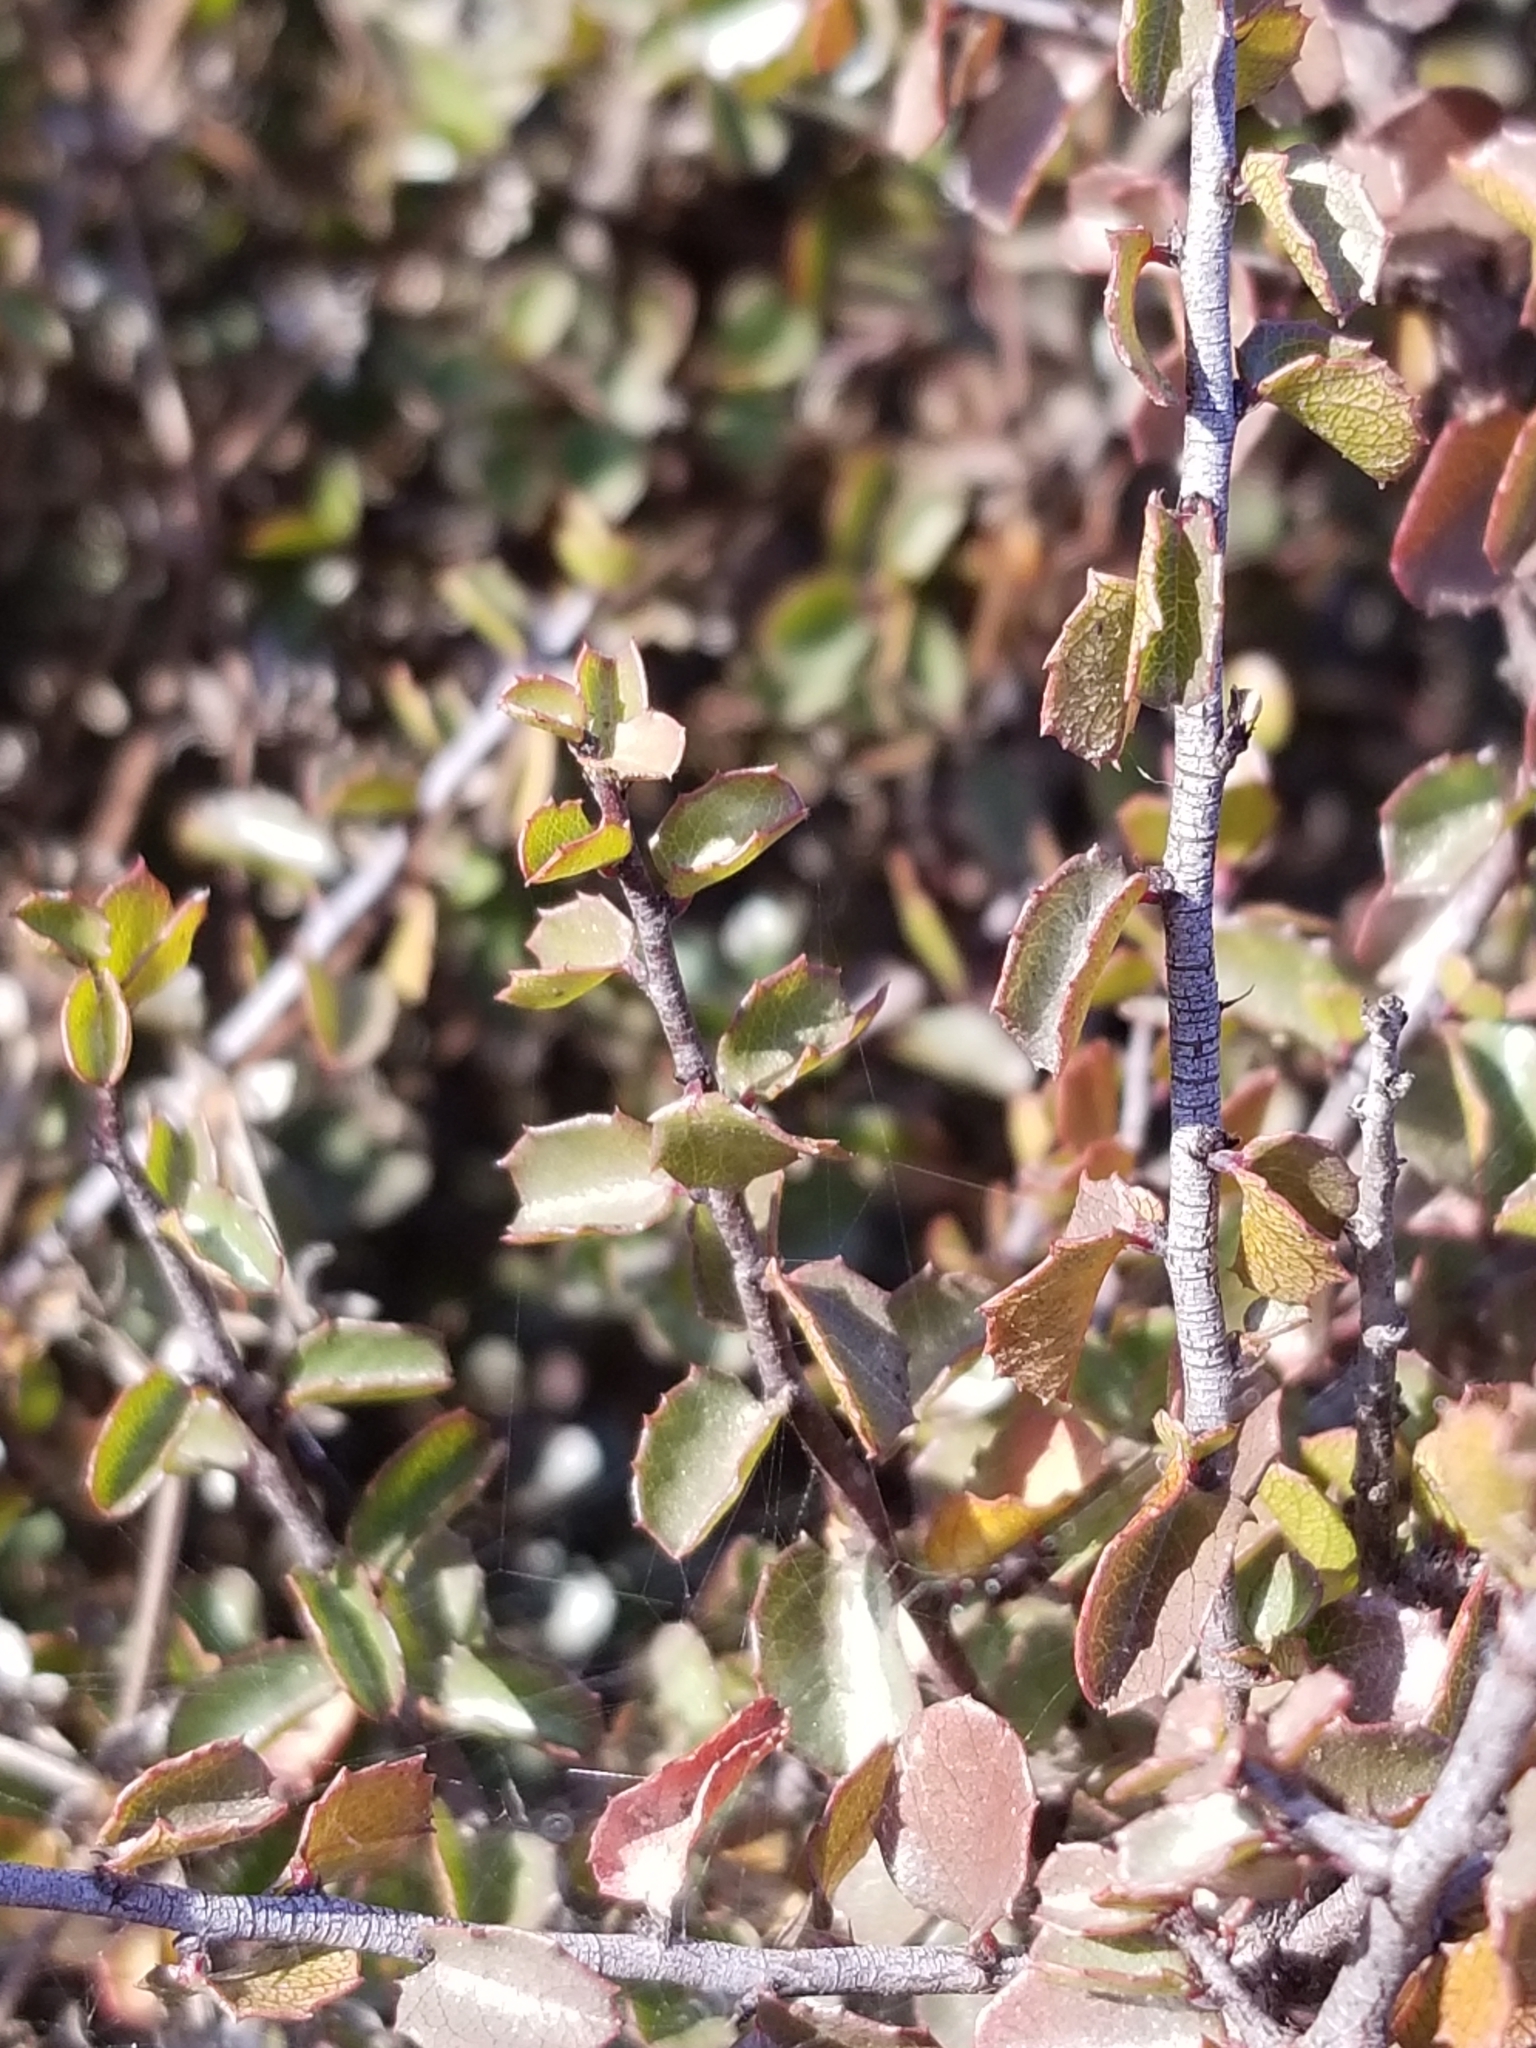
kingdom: Plantae
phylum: Tracheophyta
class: Magnoliopsida
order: Rosales
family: Rhamnaceae
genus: Endotropis
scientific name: Endotropis crocea
